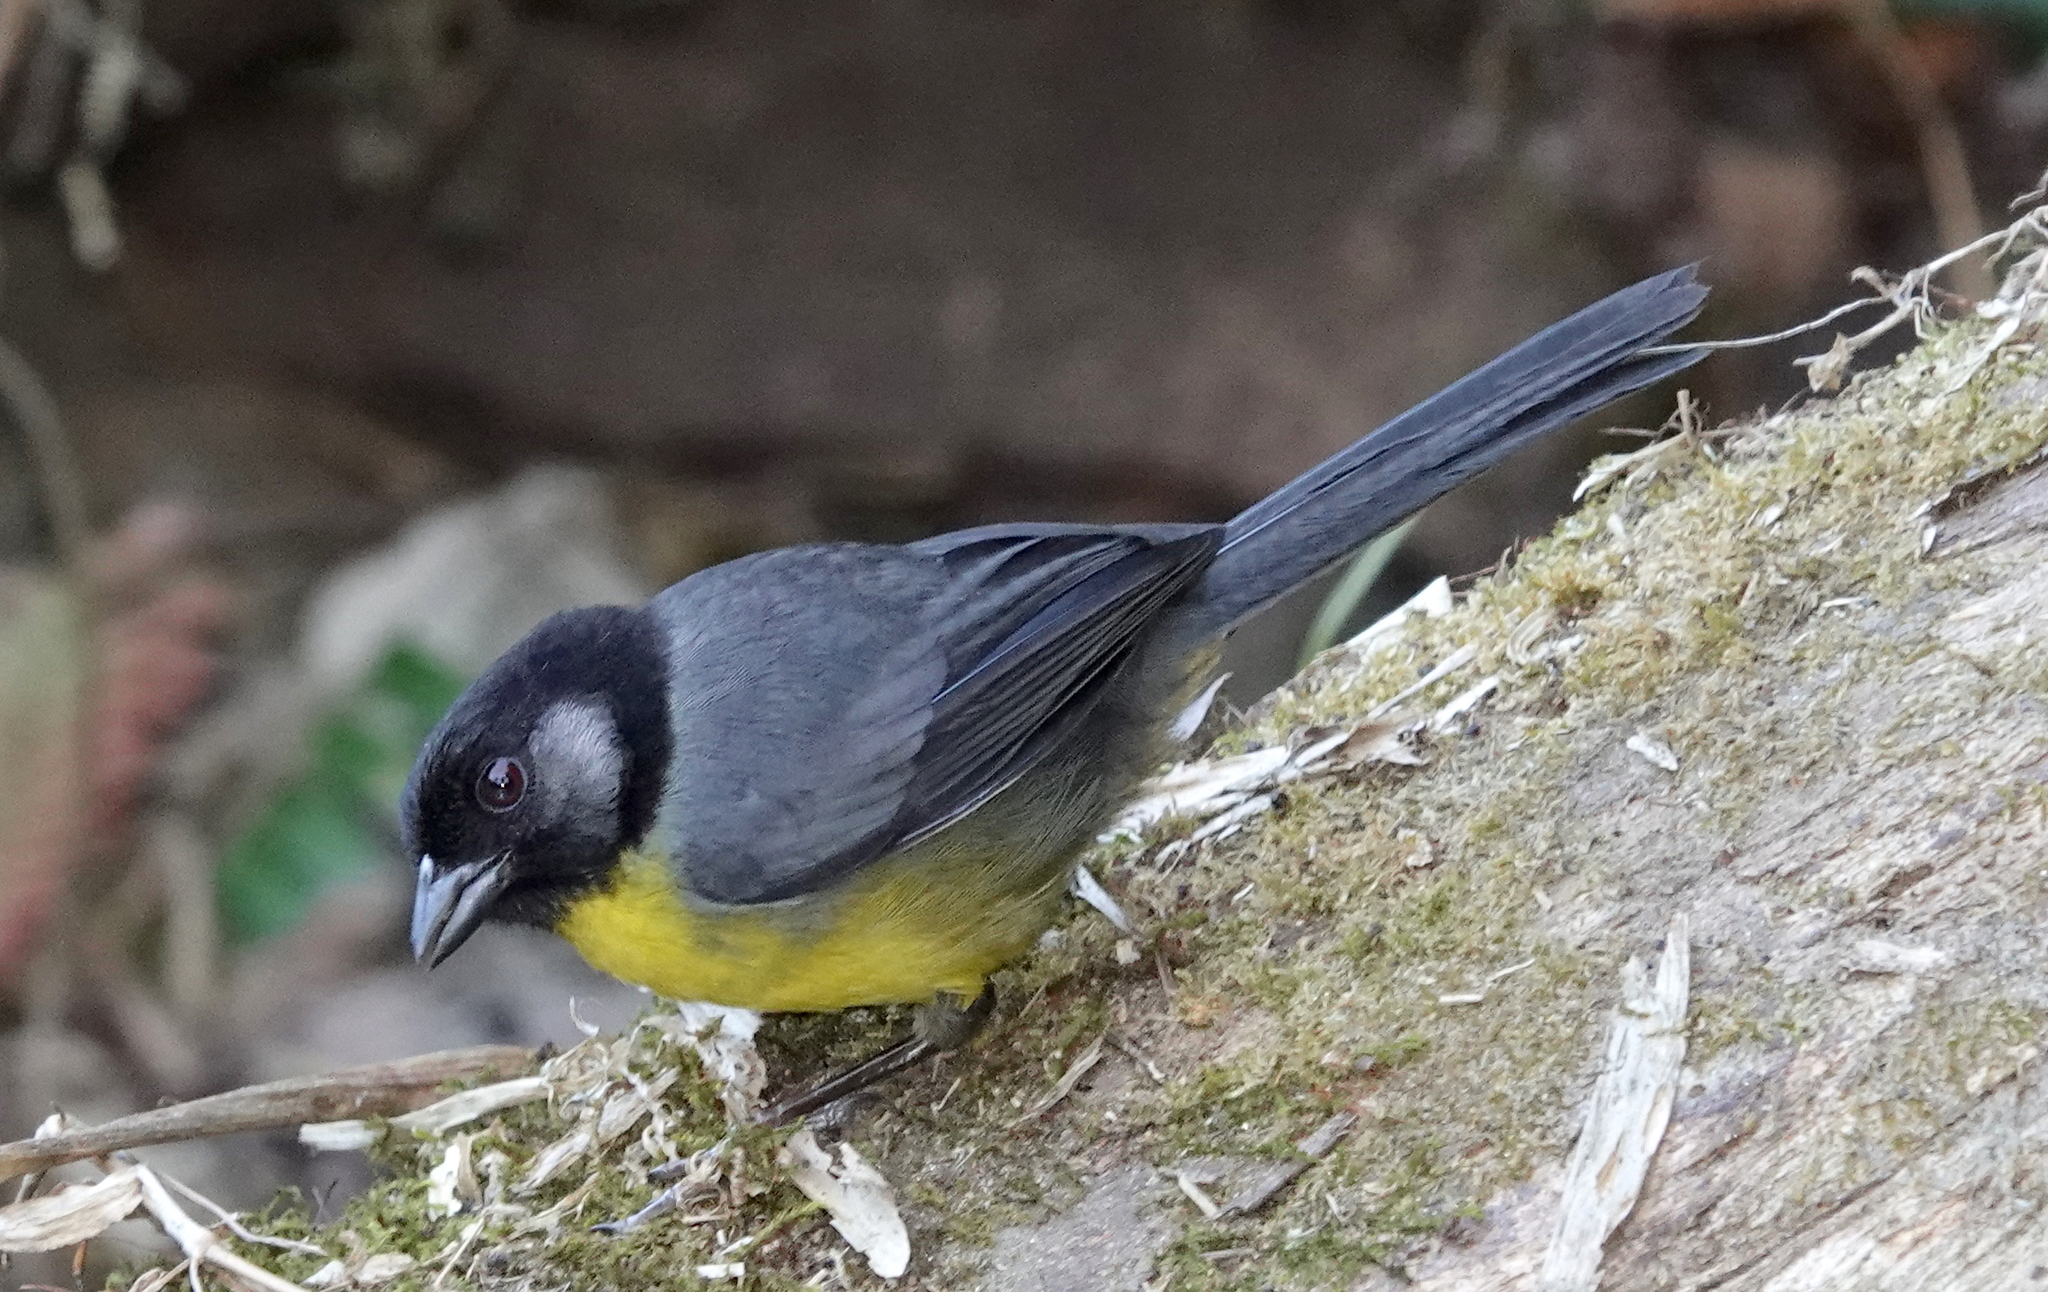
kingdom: Animalia
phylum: Chordata
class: Aves
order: Passeriformes
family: Passerellidae
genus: Atlapetes
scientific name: Atlapetes melanocephalus
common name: Santa marta brush-finch
